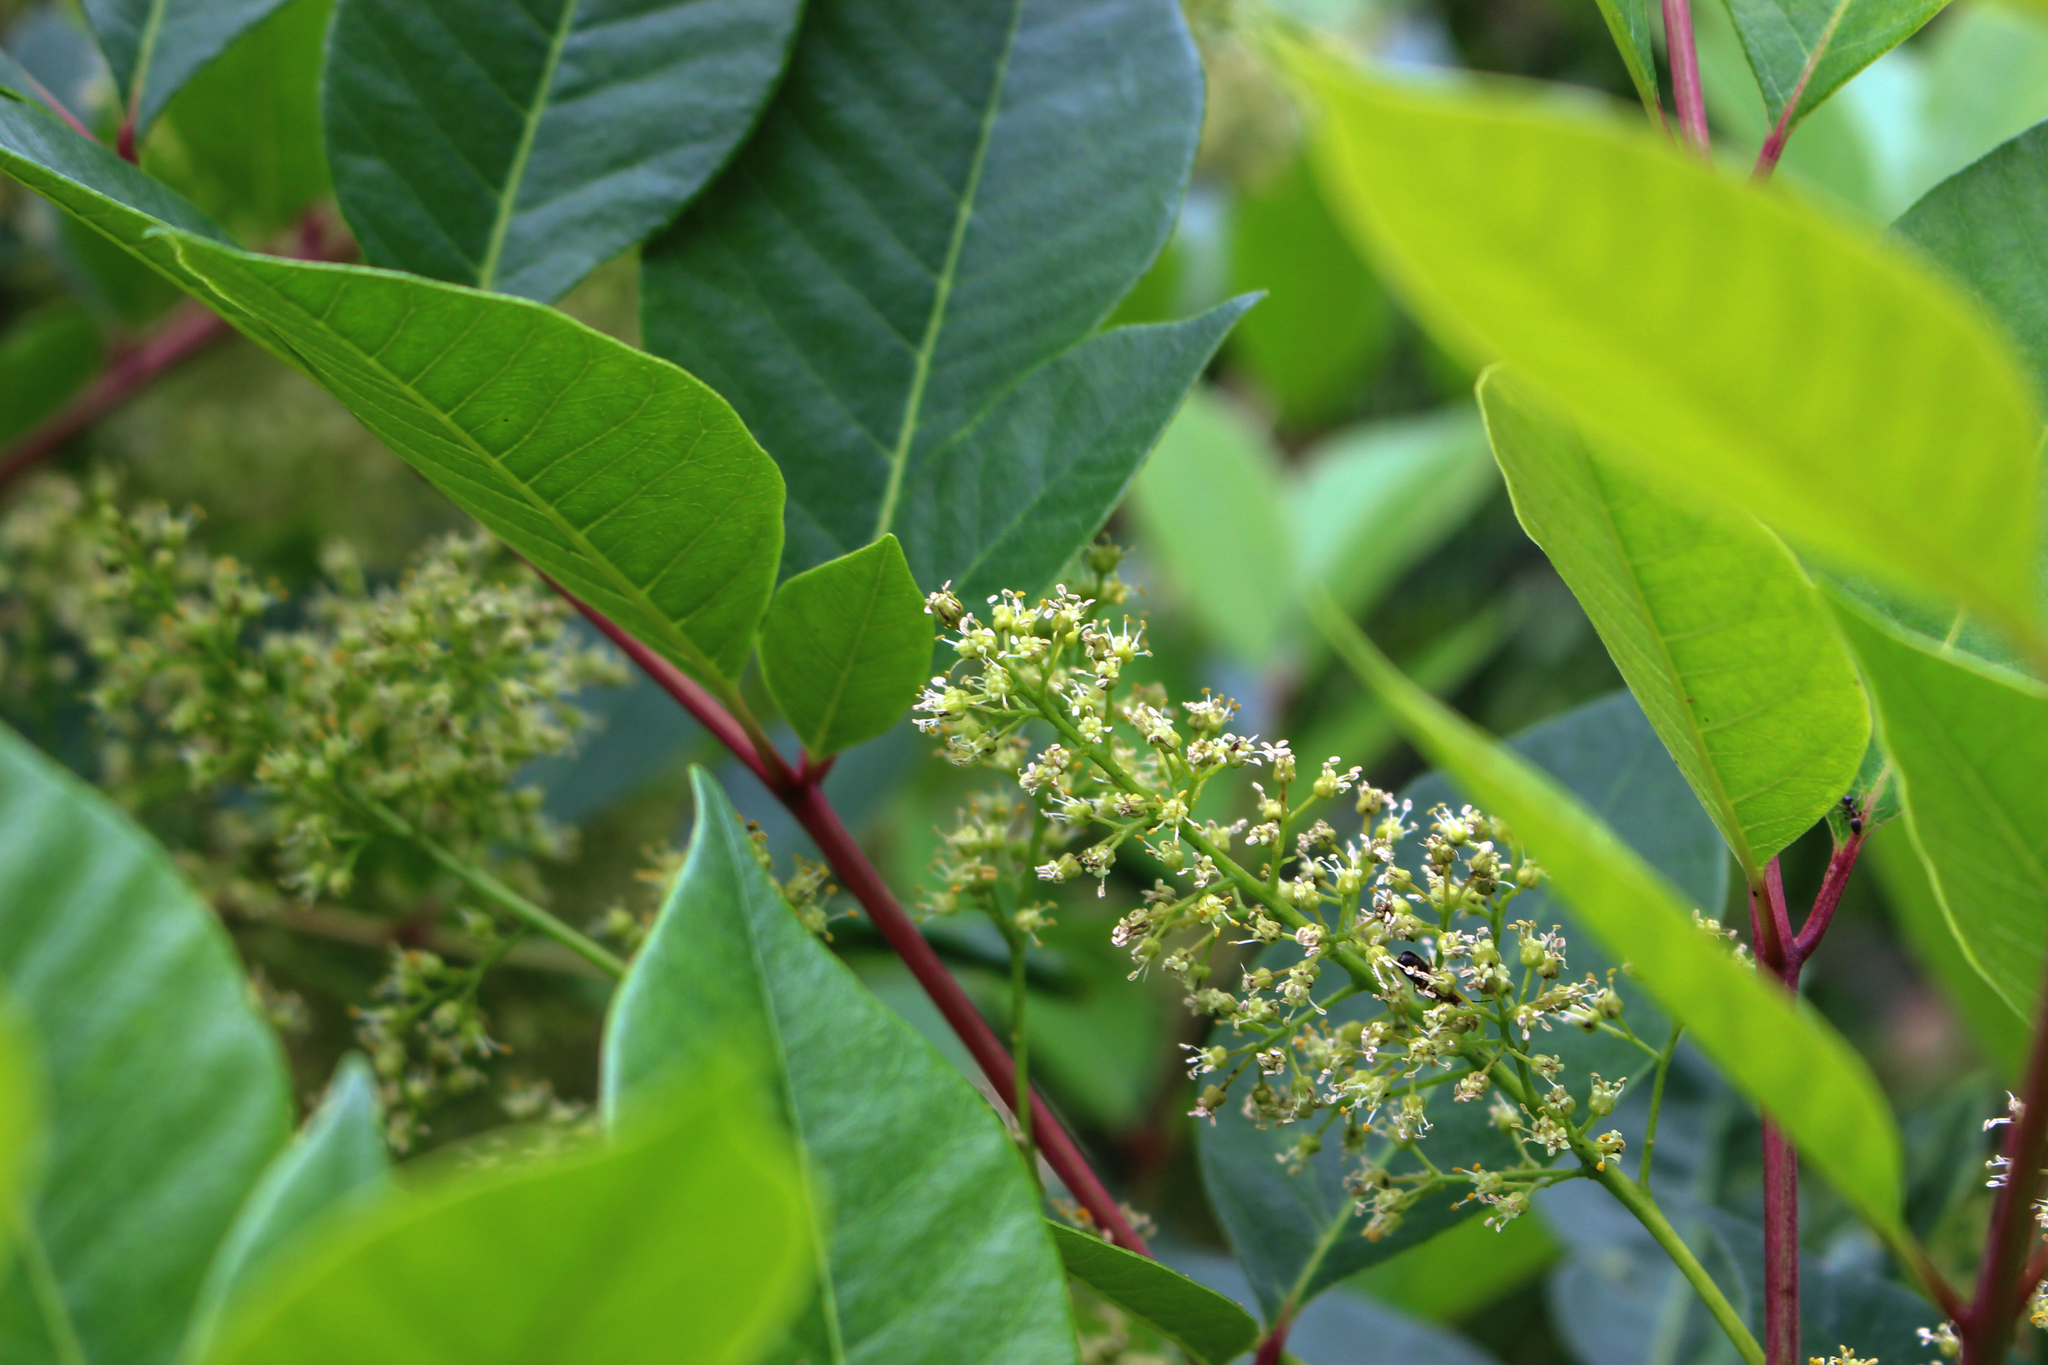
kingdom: Plantae
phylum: Tracheophyta
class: Magnoliopsida
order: Sapindales
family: Anacardiaceae
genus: Toxicodendron
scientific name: Toxicodendron vernix
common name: Poison sumac
